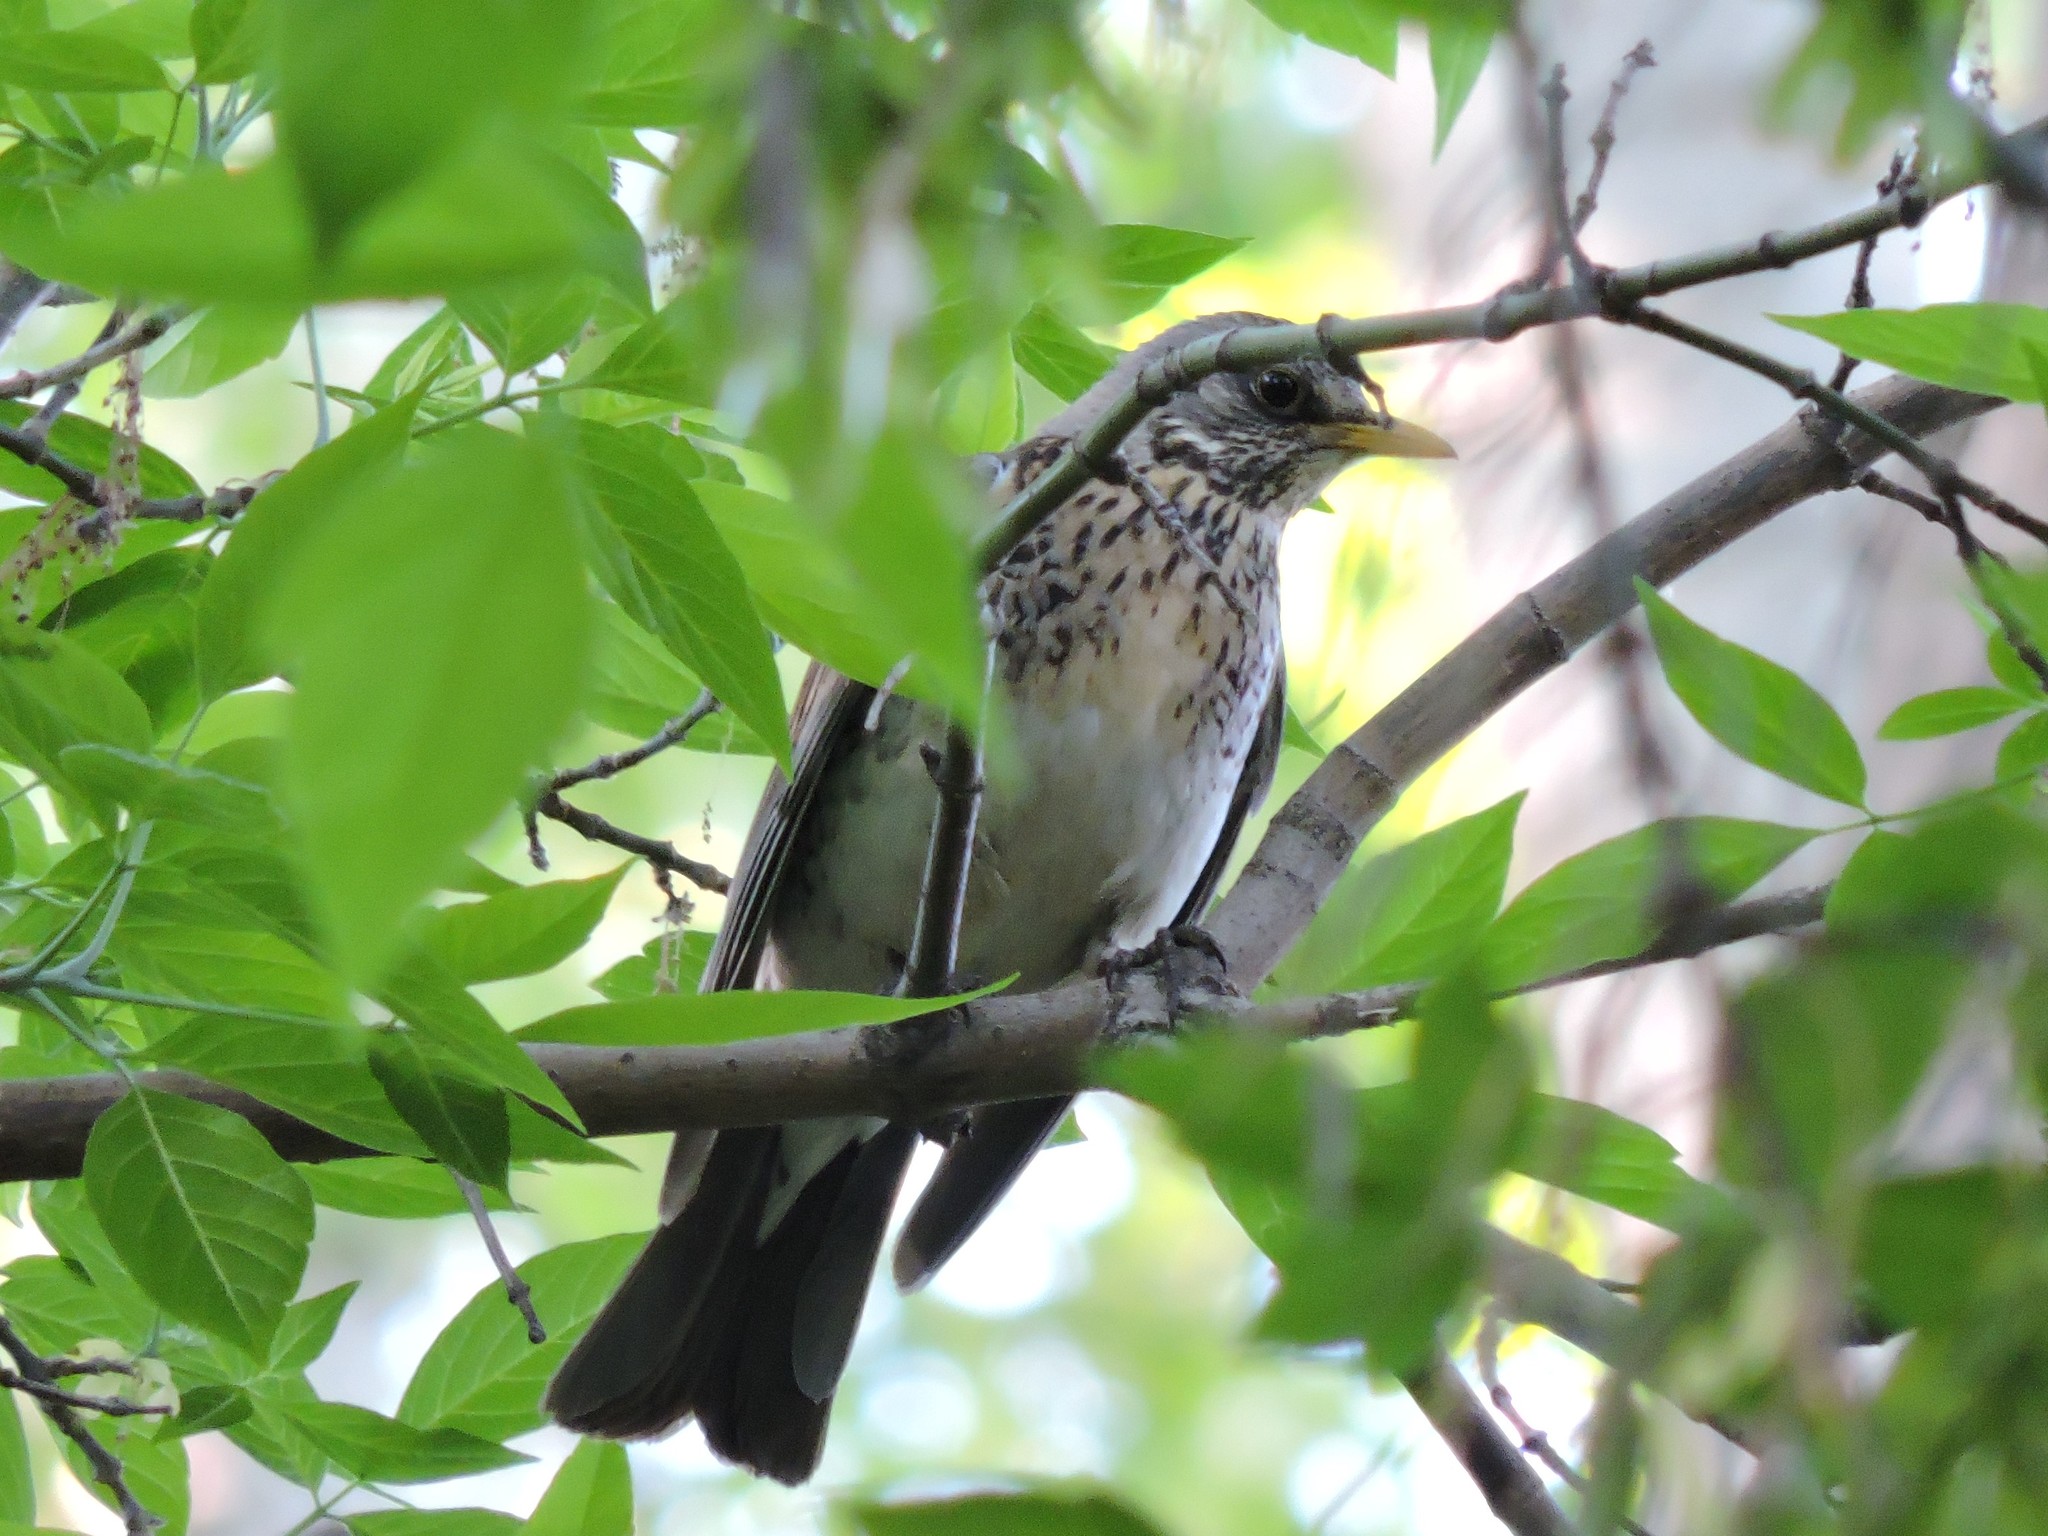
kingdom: Animalia
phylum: Chordata
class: Aves
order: Passeriformes
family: Turdidae
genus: Turdus
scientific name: Turdus pilaris
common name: Fieldfare
